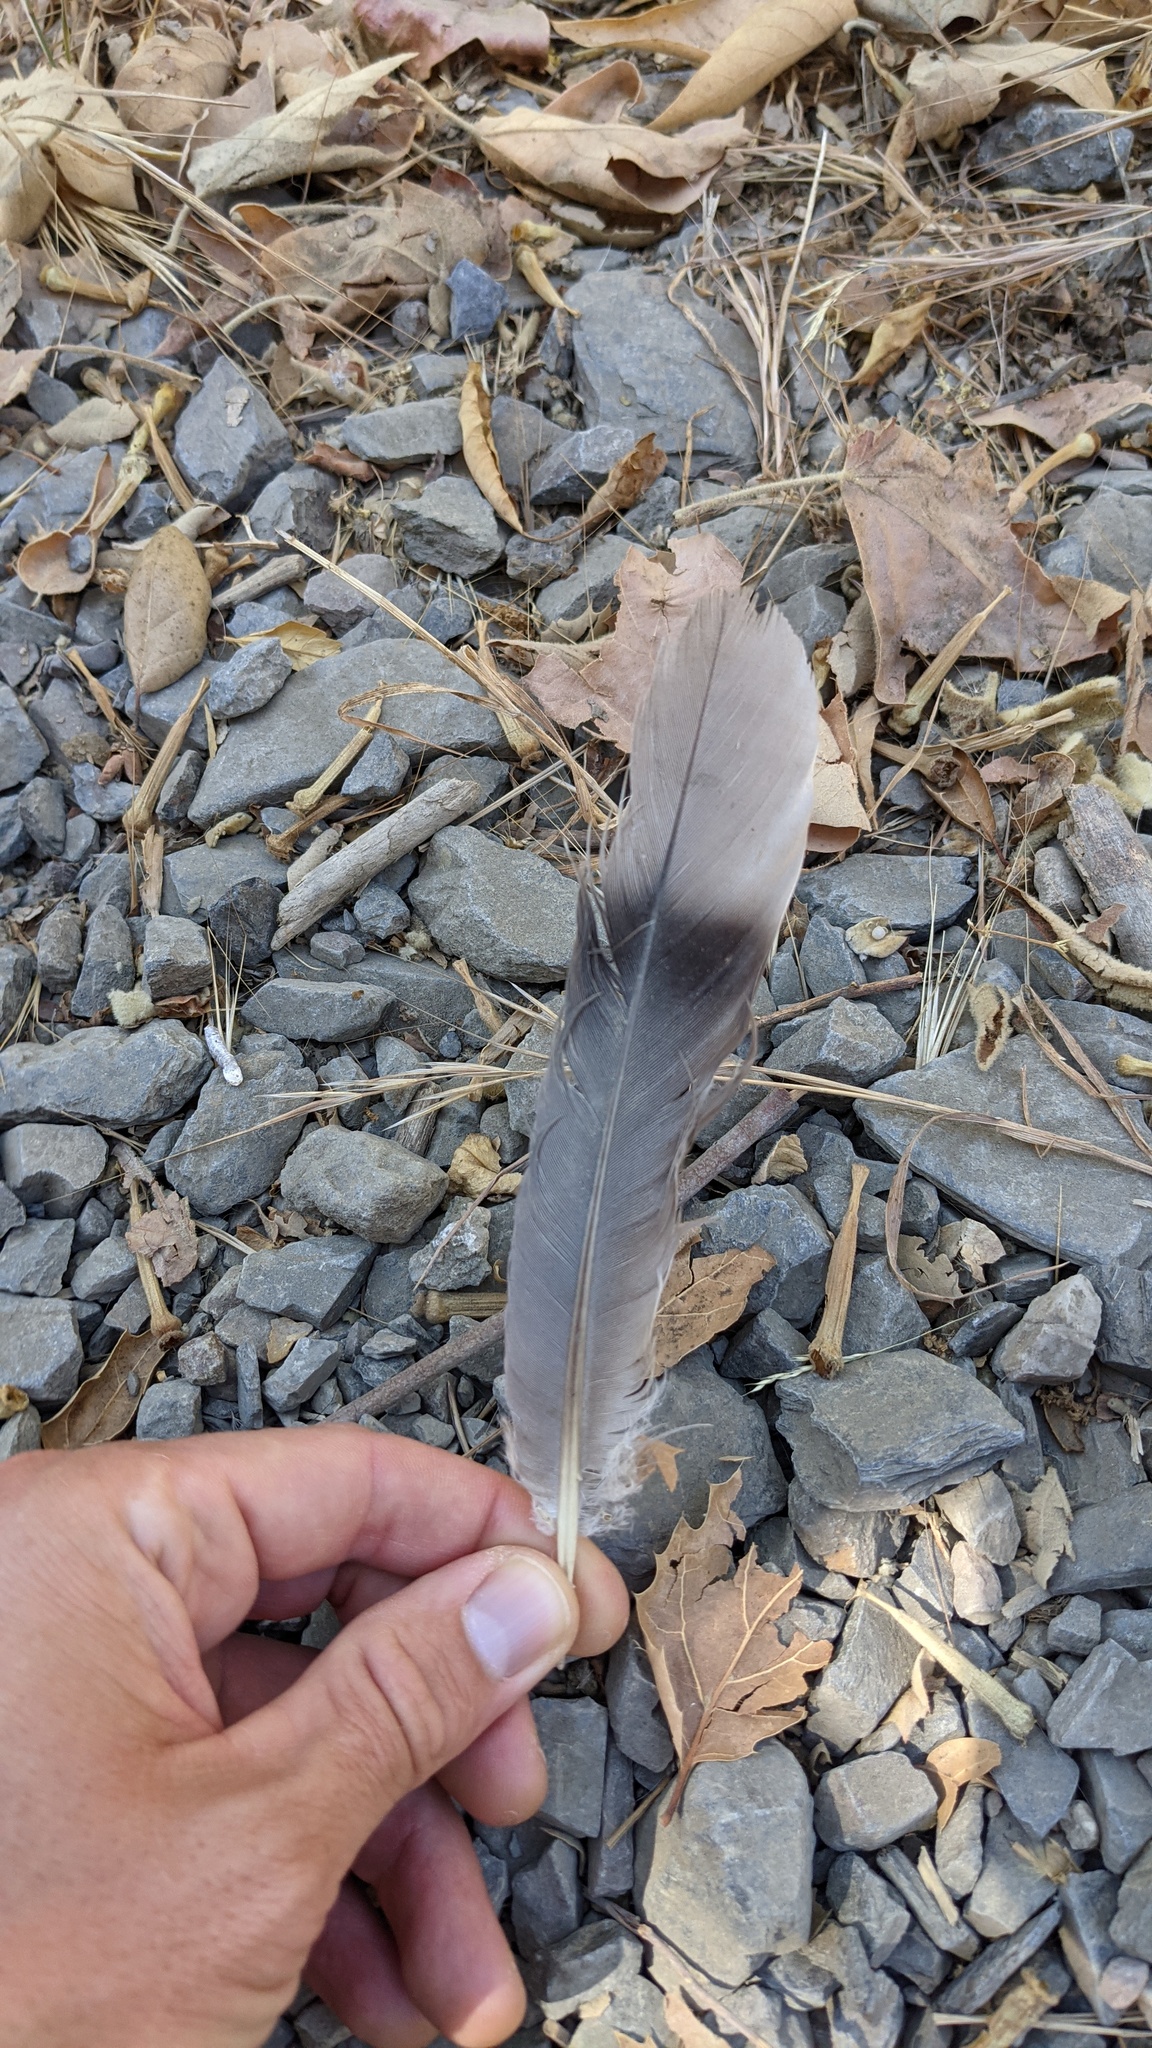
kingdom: Animalia
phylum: Chordata
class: Aves
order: Columbiformes
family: Columbidae
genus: Patagioenas
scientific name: Patagioenas fasciata
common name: Band-tailed pigeon
